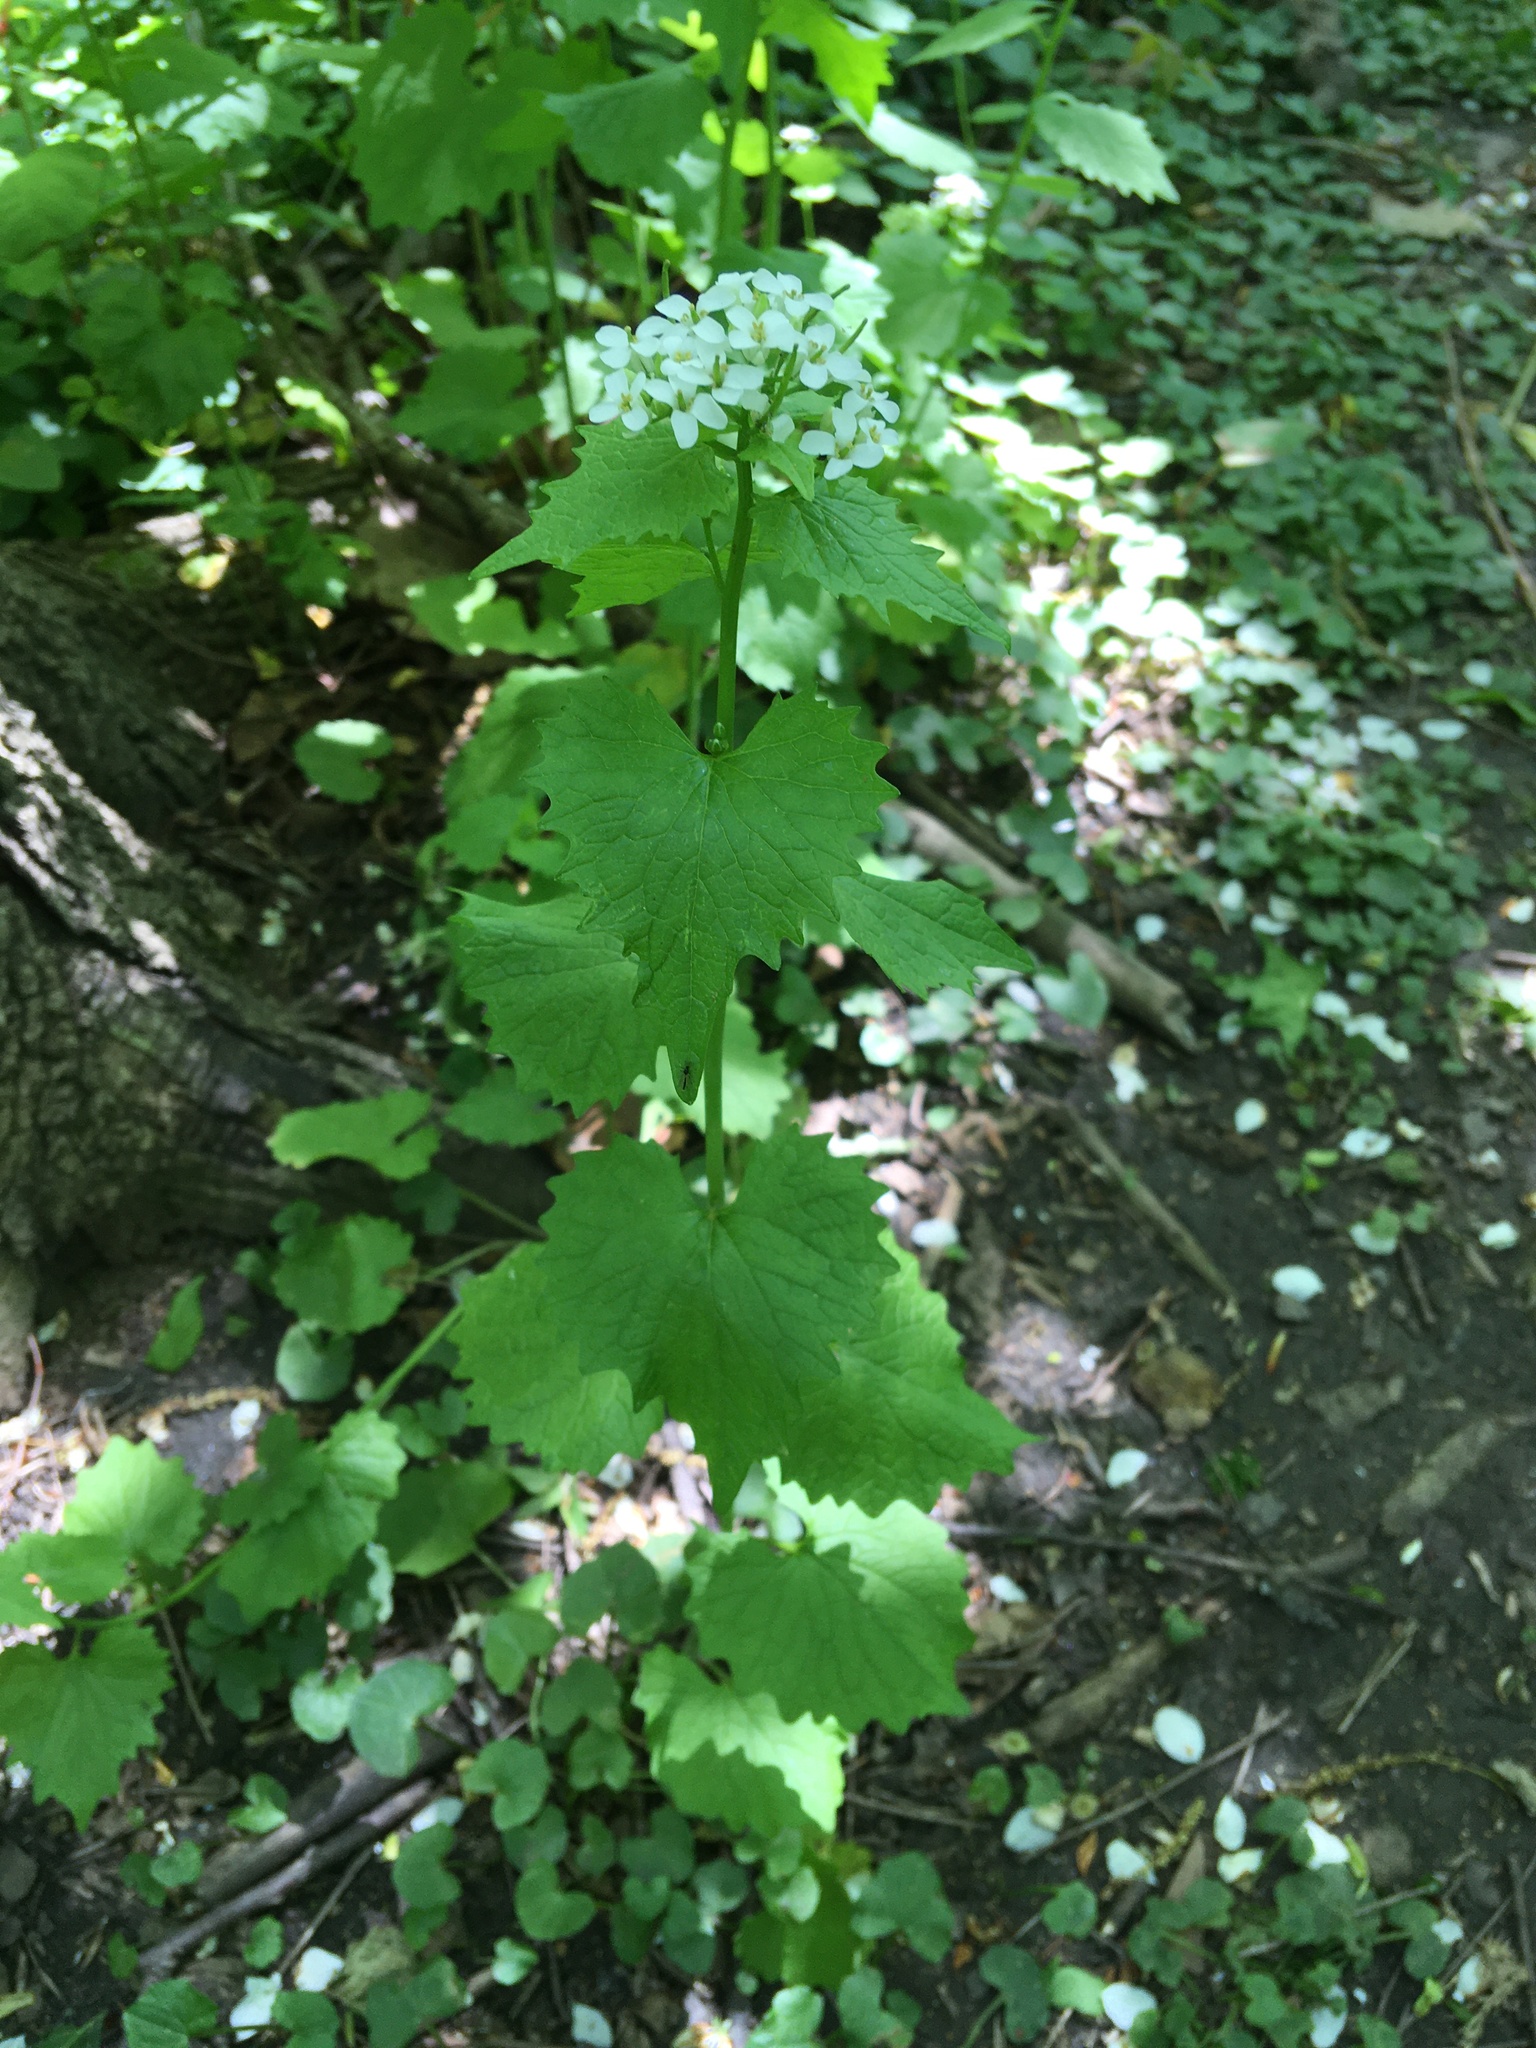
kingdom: Plantae
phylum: Tracheophyta
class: Magnoliopsida
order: Brassicales
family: Brassicaceae
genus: Alliaria
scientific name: Alliaria petiolata
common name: Garlic mustard
